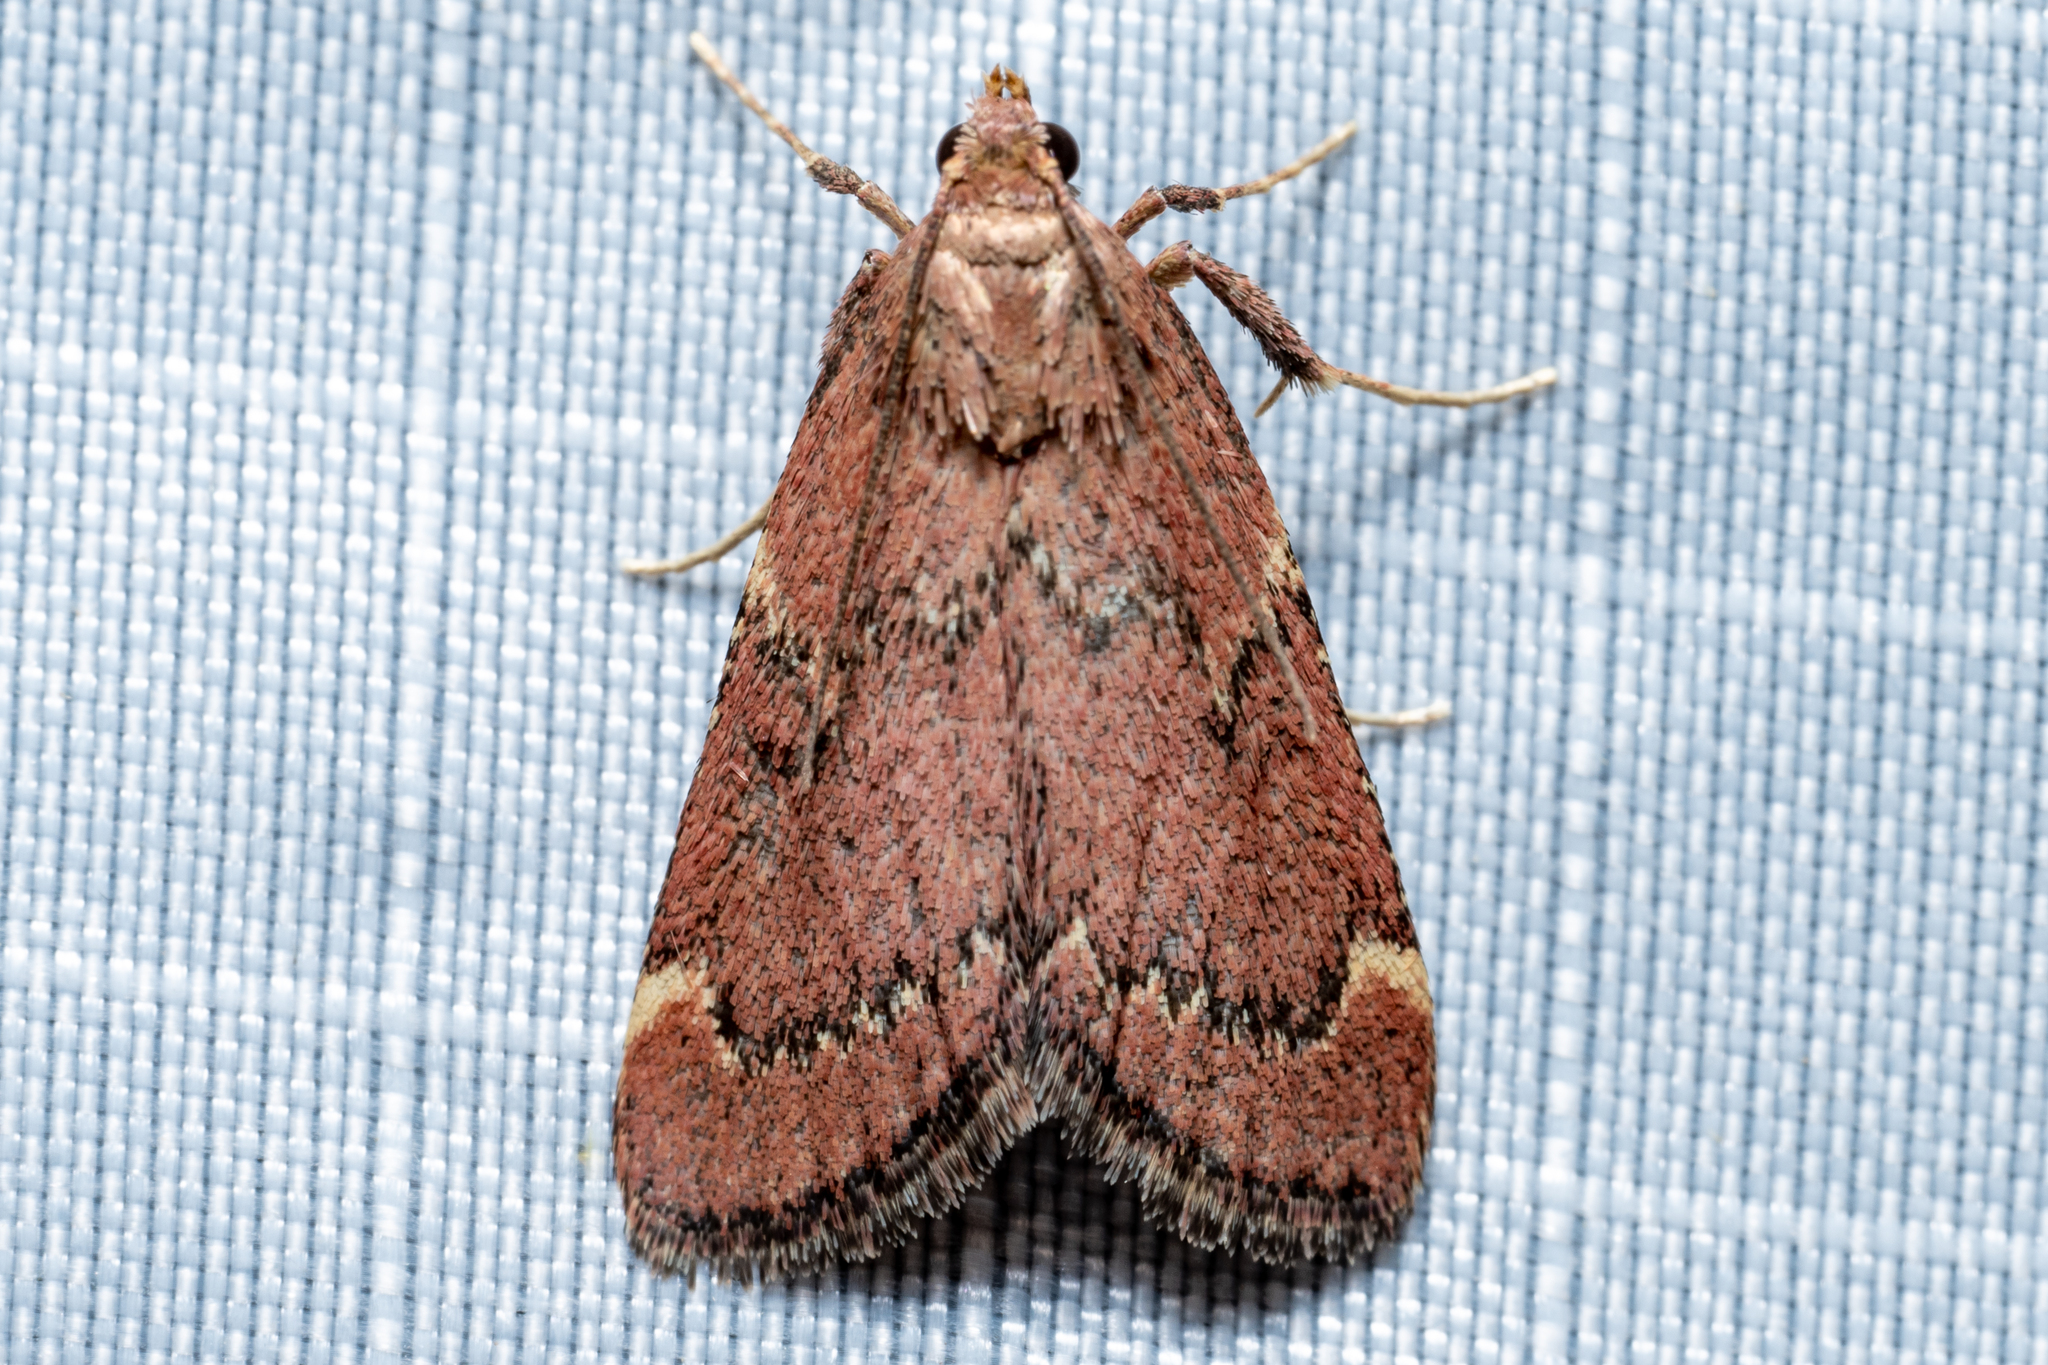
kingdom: Animalia
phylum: Arthropoda
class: Insecta
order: Lepidoptera
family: Pyralidae
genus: Hypsopygia
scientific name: Hypsopygia intermedialis
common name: Red-shawled moth
